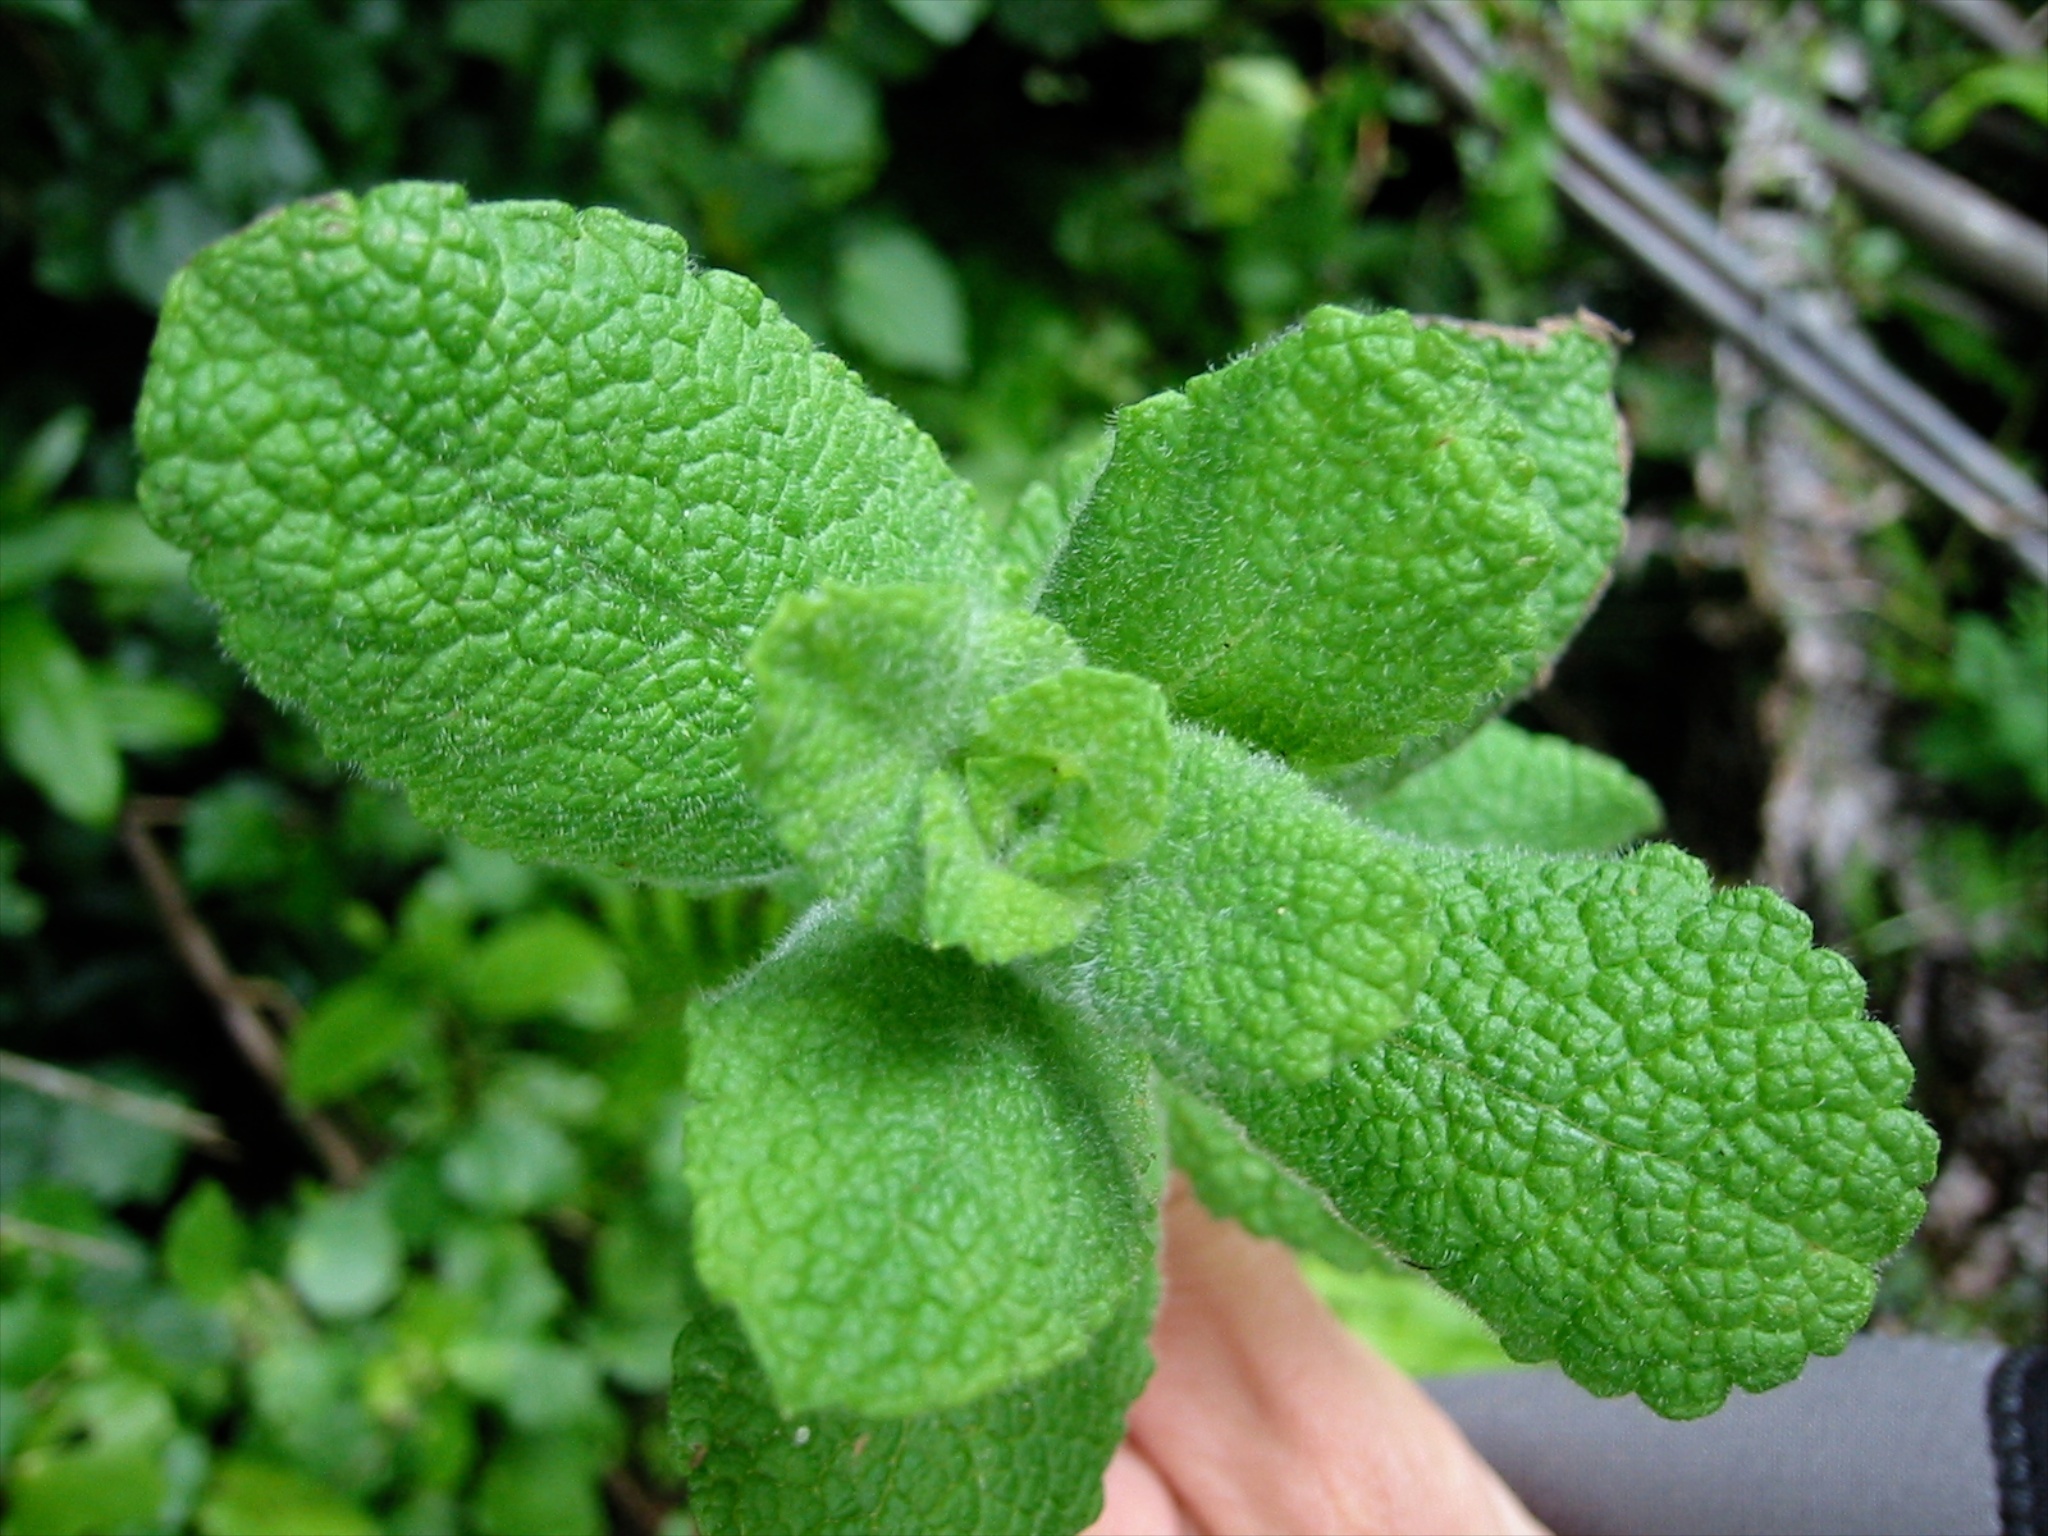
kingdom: Plantae
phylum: Tracheophyta
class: Magnoliopsida
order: Lamiales
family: Lamiaceae
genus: Mentha
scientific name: Mentha suaveolens
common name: Apple mint
